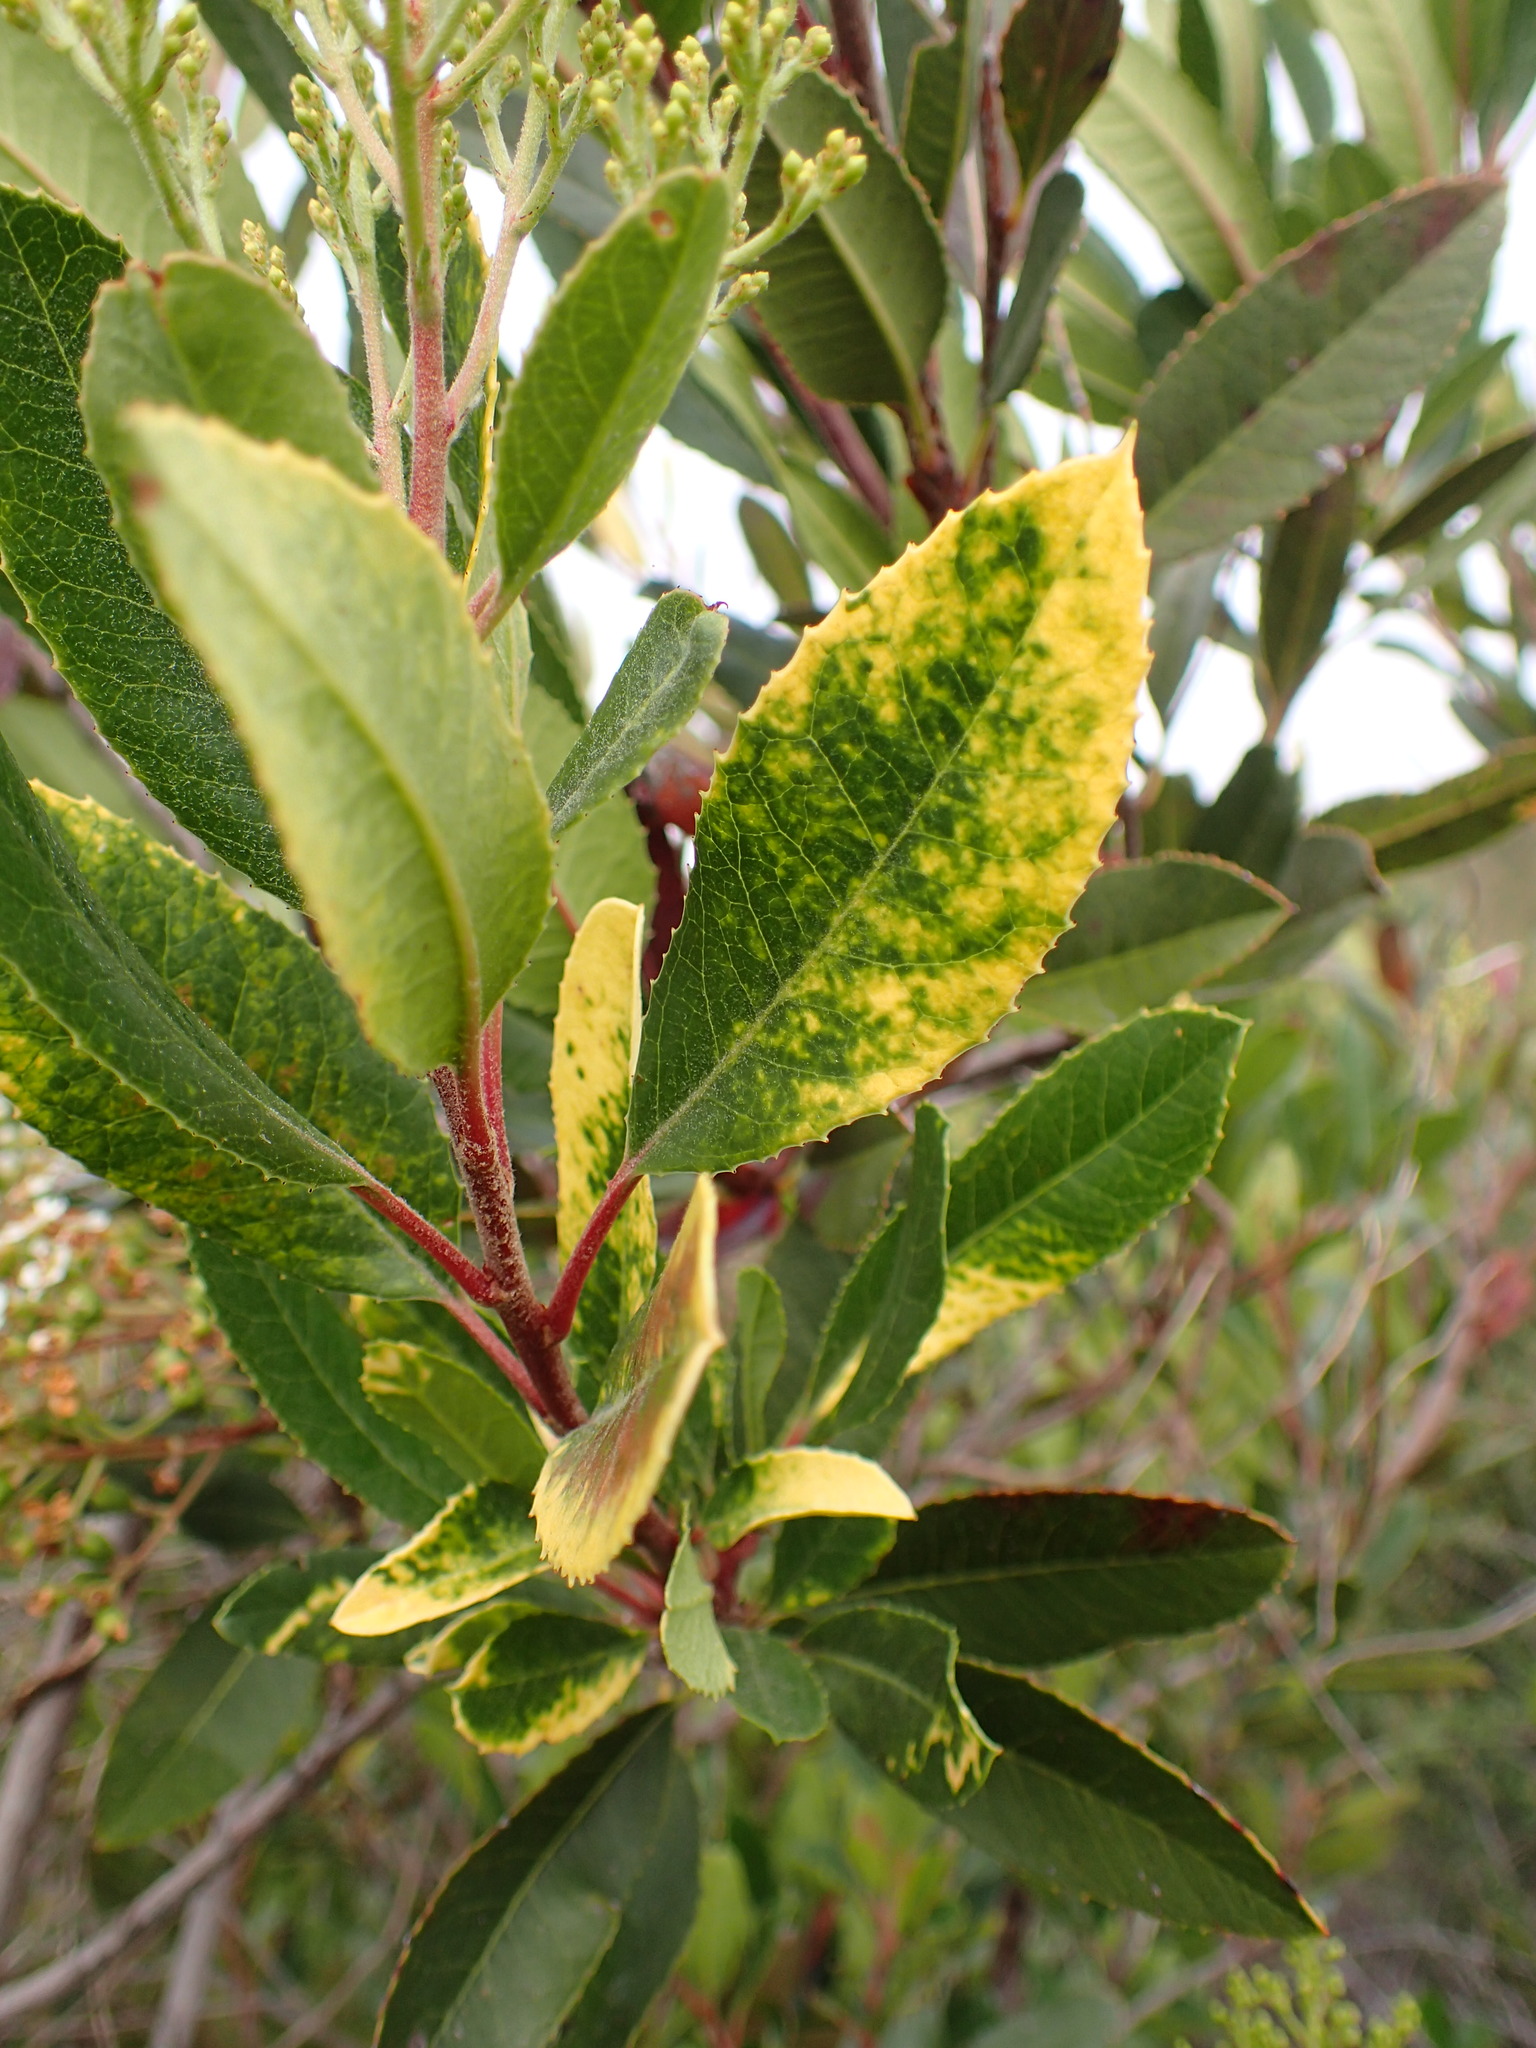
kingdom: Plantae
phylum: Tracheophyta
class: Magnoliopsida
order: Rosales
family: Rosaceae
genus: Heteromeles
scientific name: Heteromeles arbutifolia
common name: California-holly
